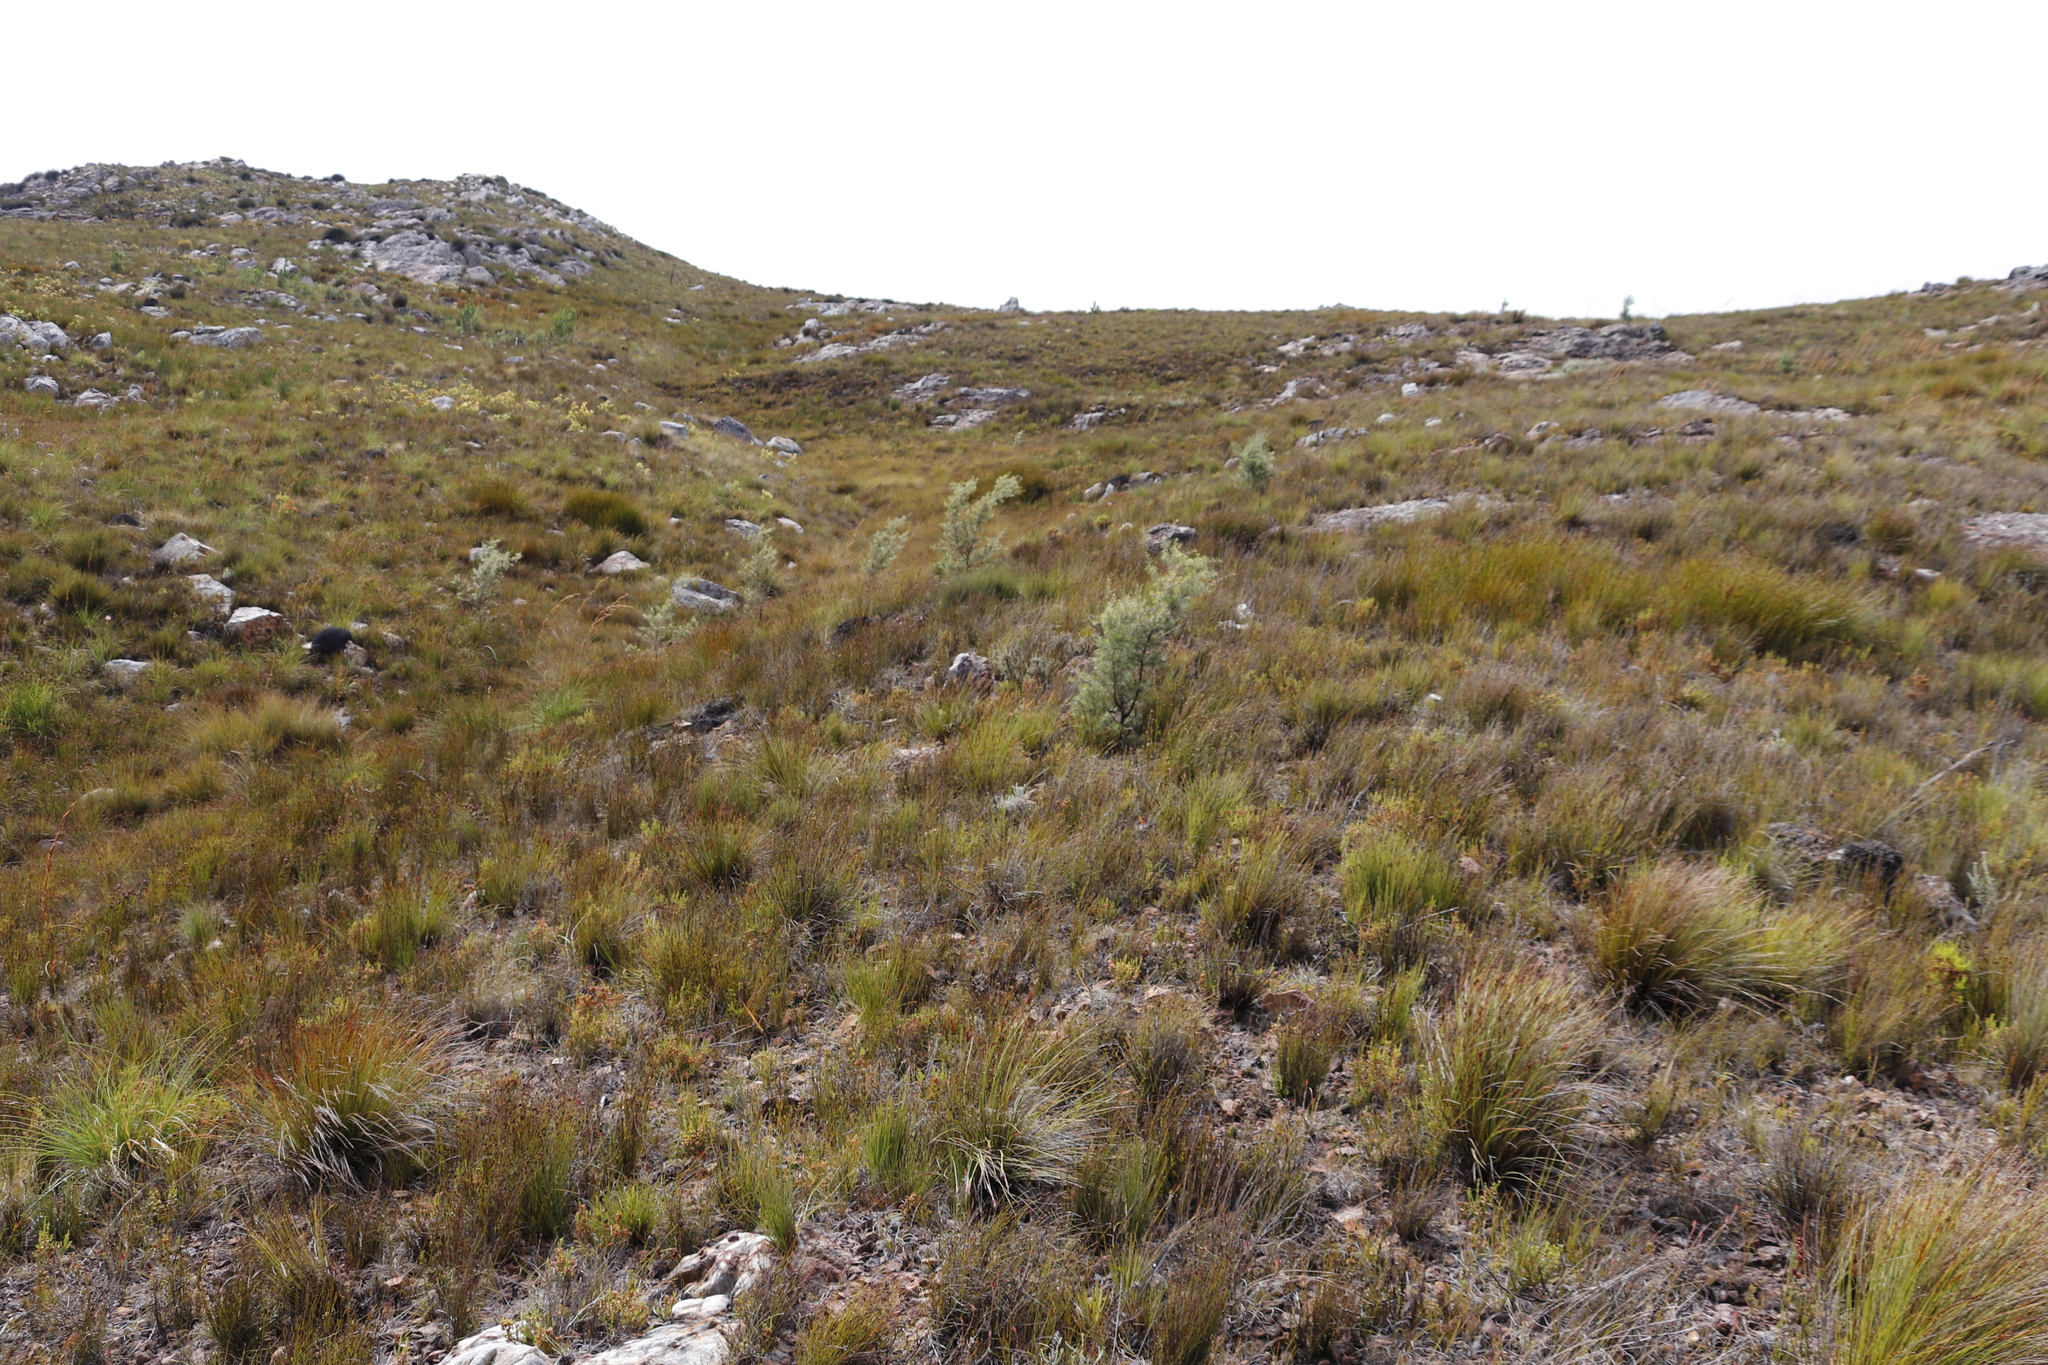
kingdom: Plantae
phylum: Tracheophyta
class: Magnoliopsida
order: Proteales
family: Proteaceae
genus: Hakea
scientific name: Hakea sericea
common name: Needle bush
